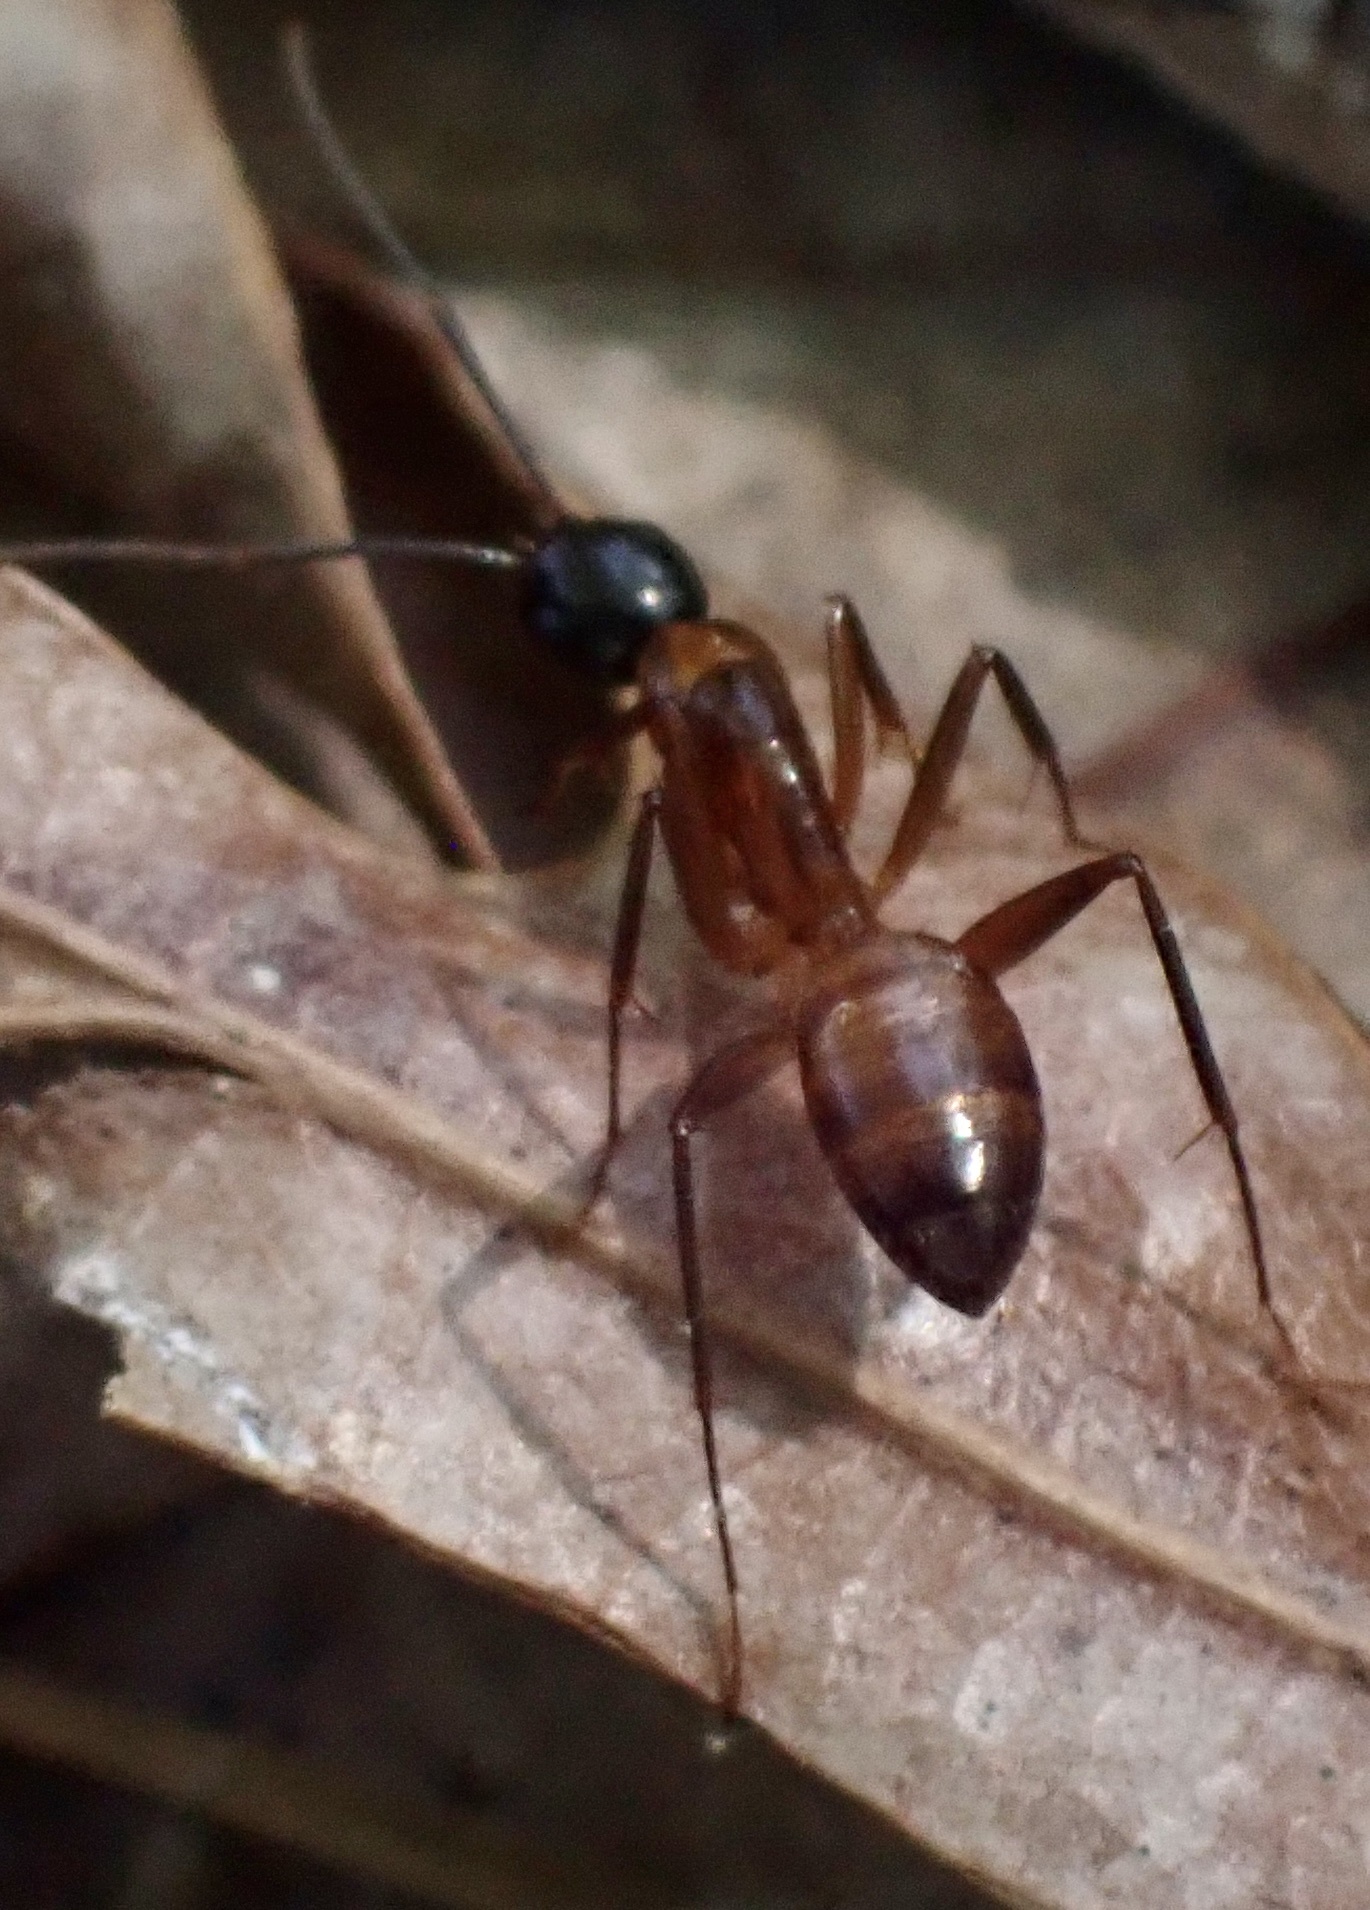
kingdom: Animalia
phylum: Arthropoda
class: Insecta
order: Hymenoptera
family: Formicidae
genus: Camponotus
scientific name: Camponotus americanus
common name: American carpenter ant
